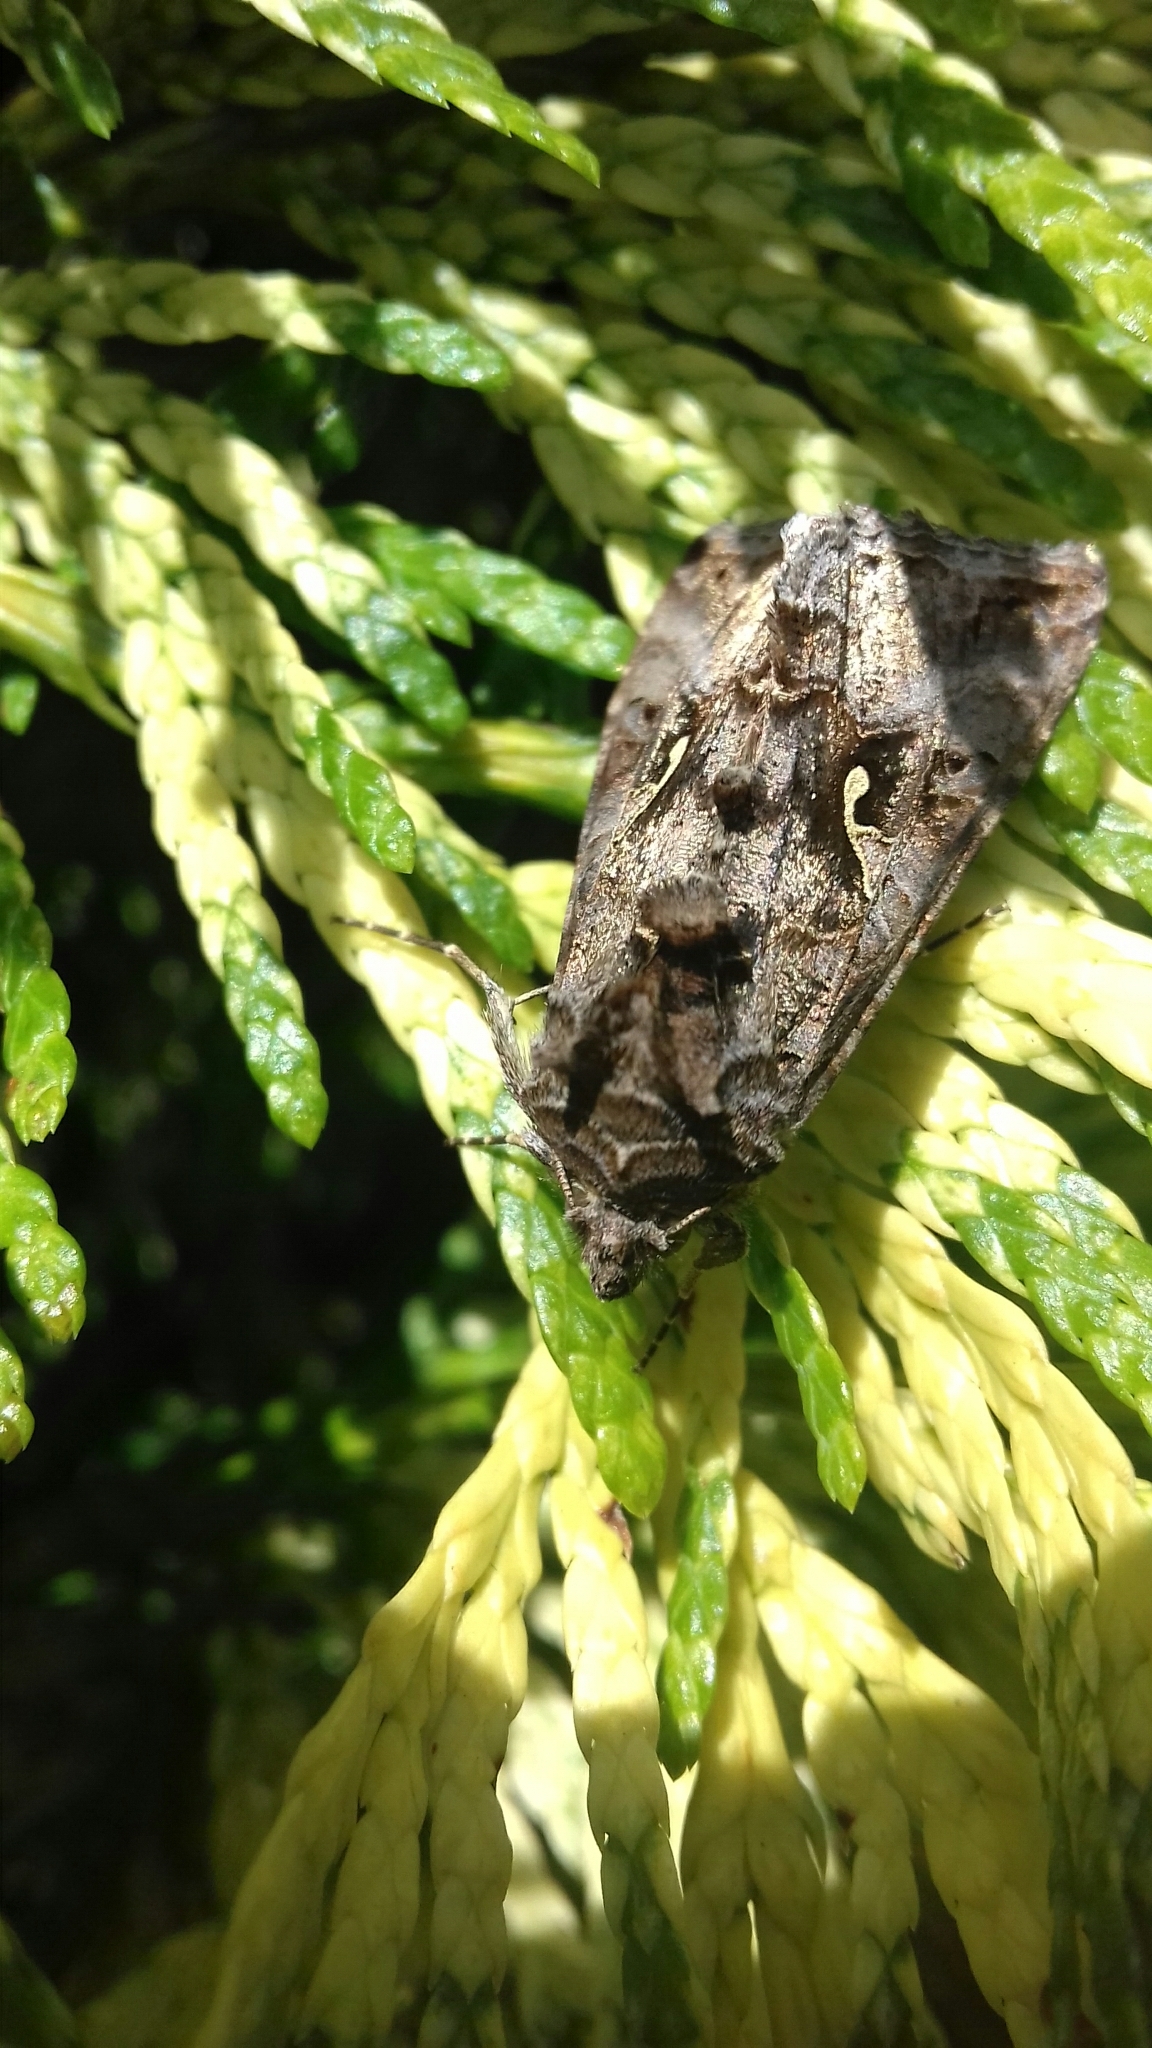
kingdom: Animalia
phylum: Arthropoda
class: Insecta
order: Lepidoptera
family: Noctuidae
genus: Autographa
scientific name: Autographa gamma
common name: Silver y
